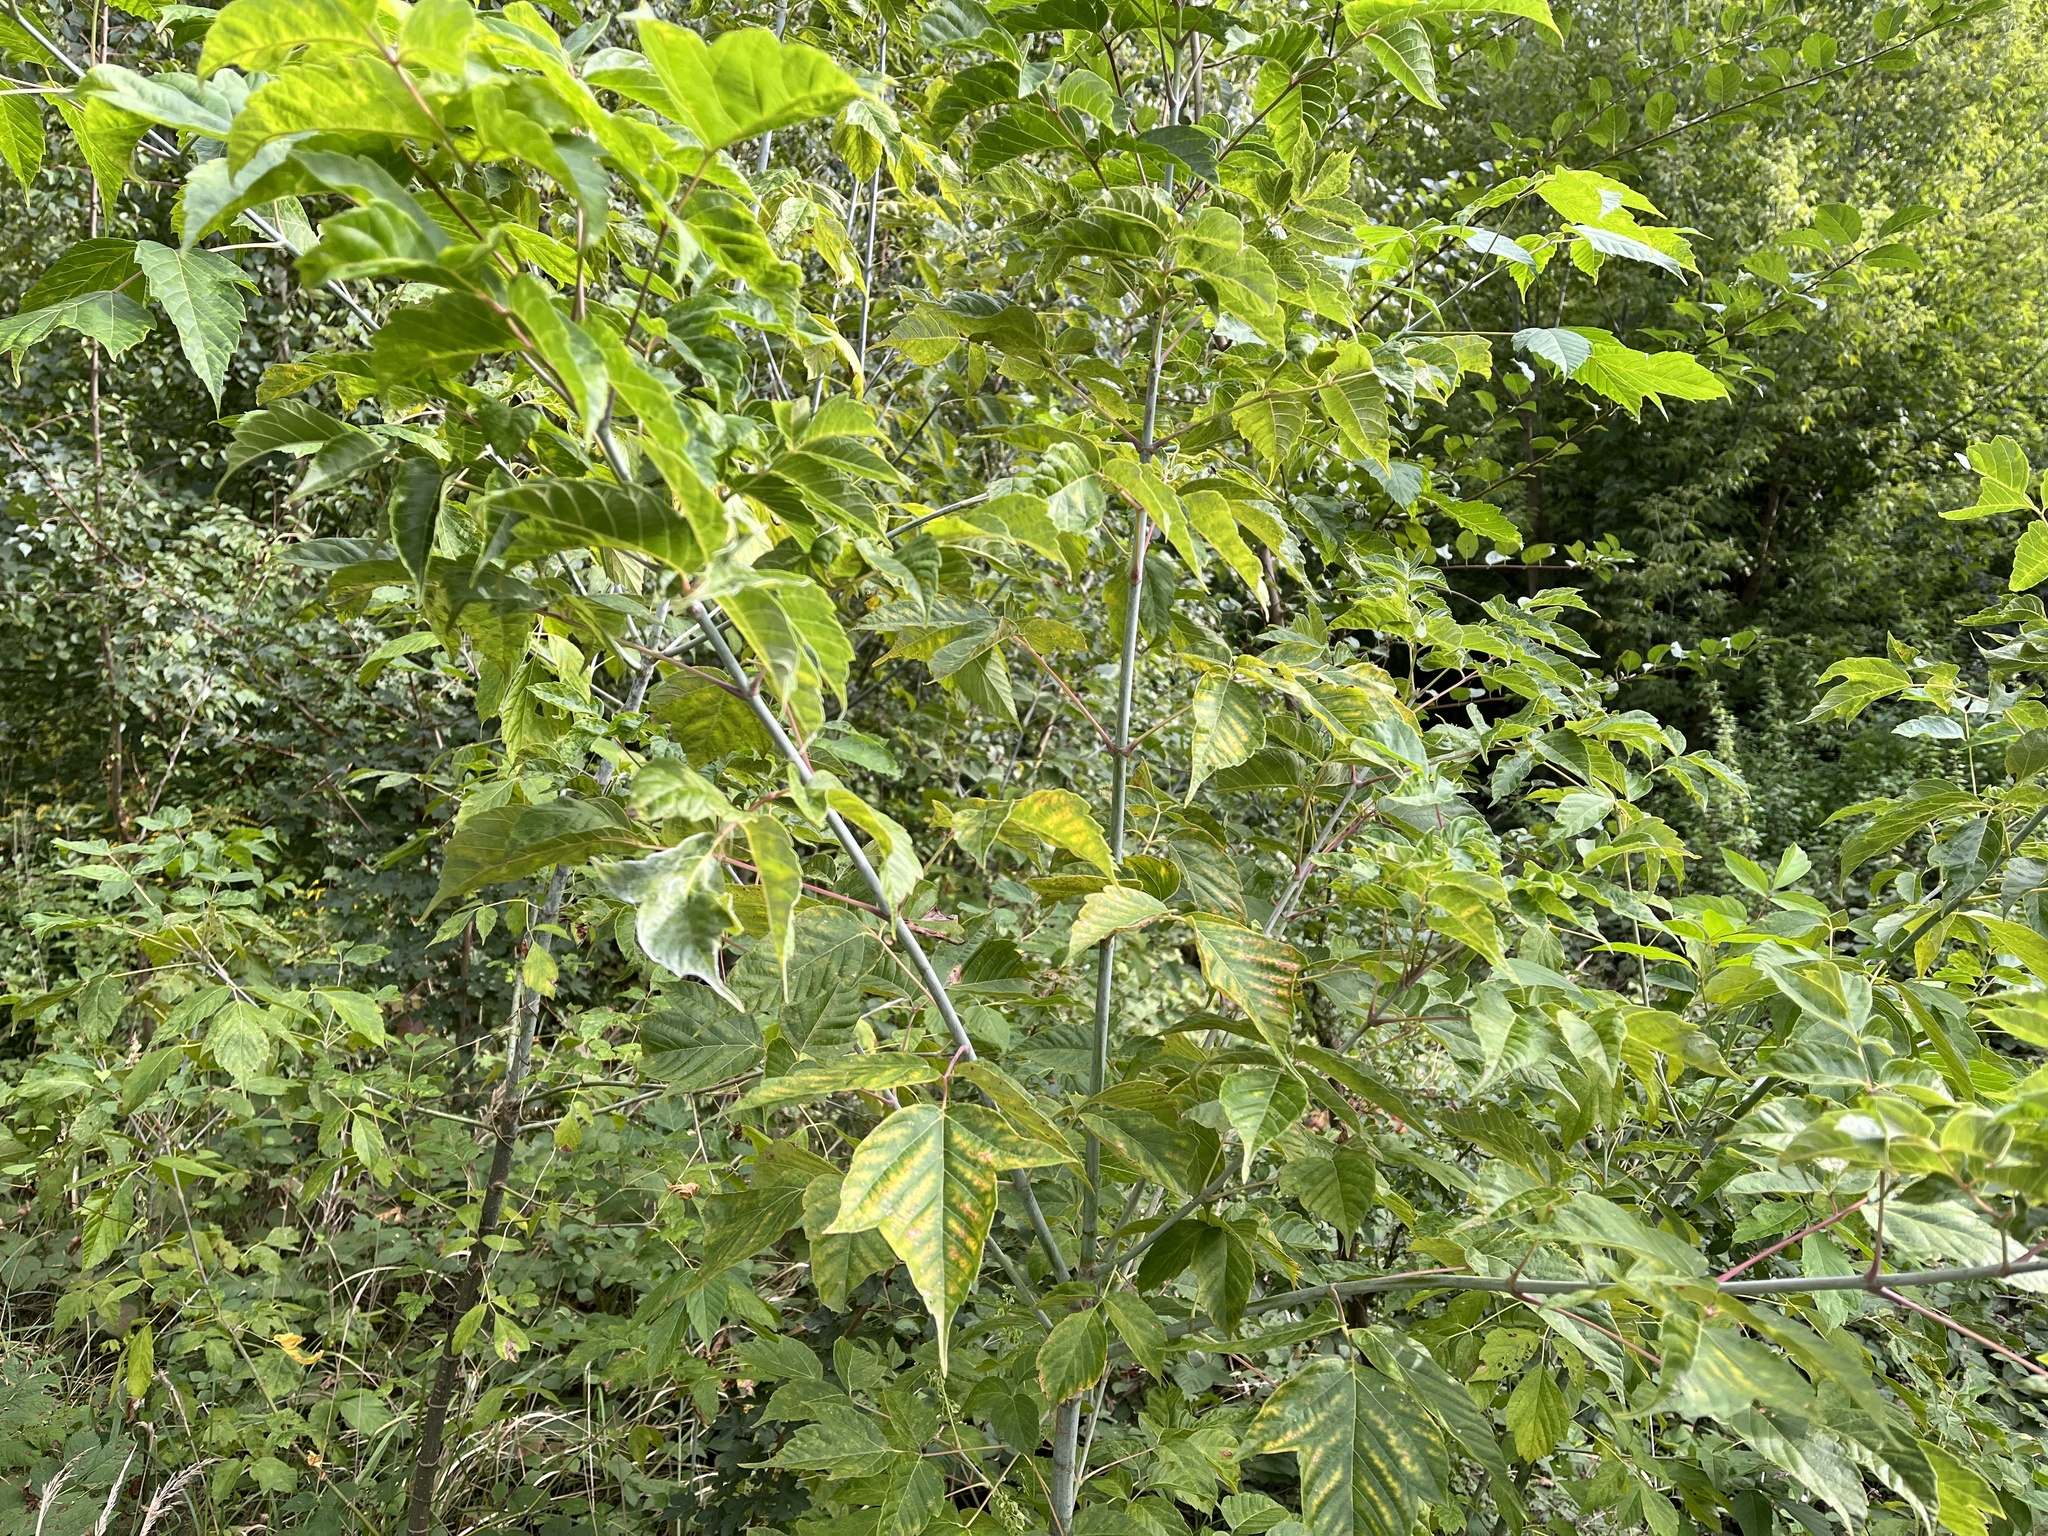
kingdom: Plantae
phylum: Tracheophyta
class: Magnoliopsida
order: Sapindales
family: Sapindaceae
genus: Acer
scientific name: Acer negundo
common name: Ashleaf maple
